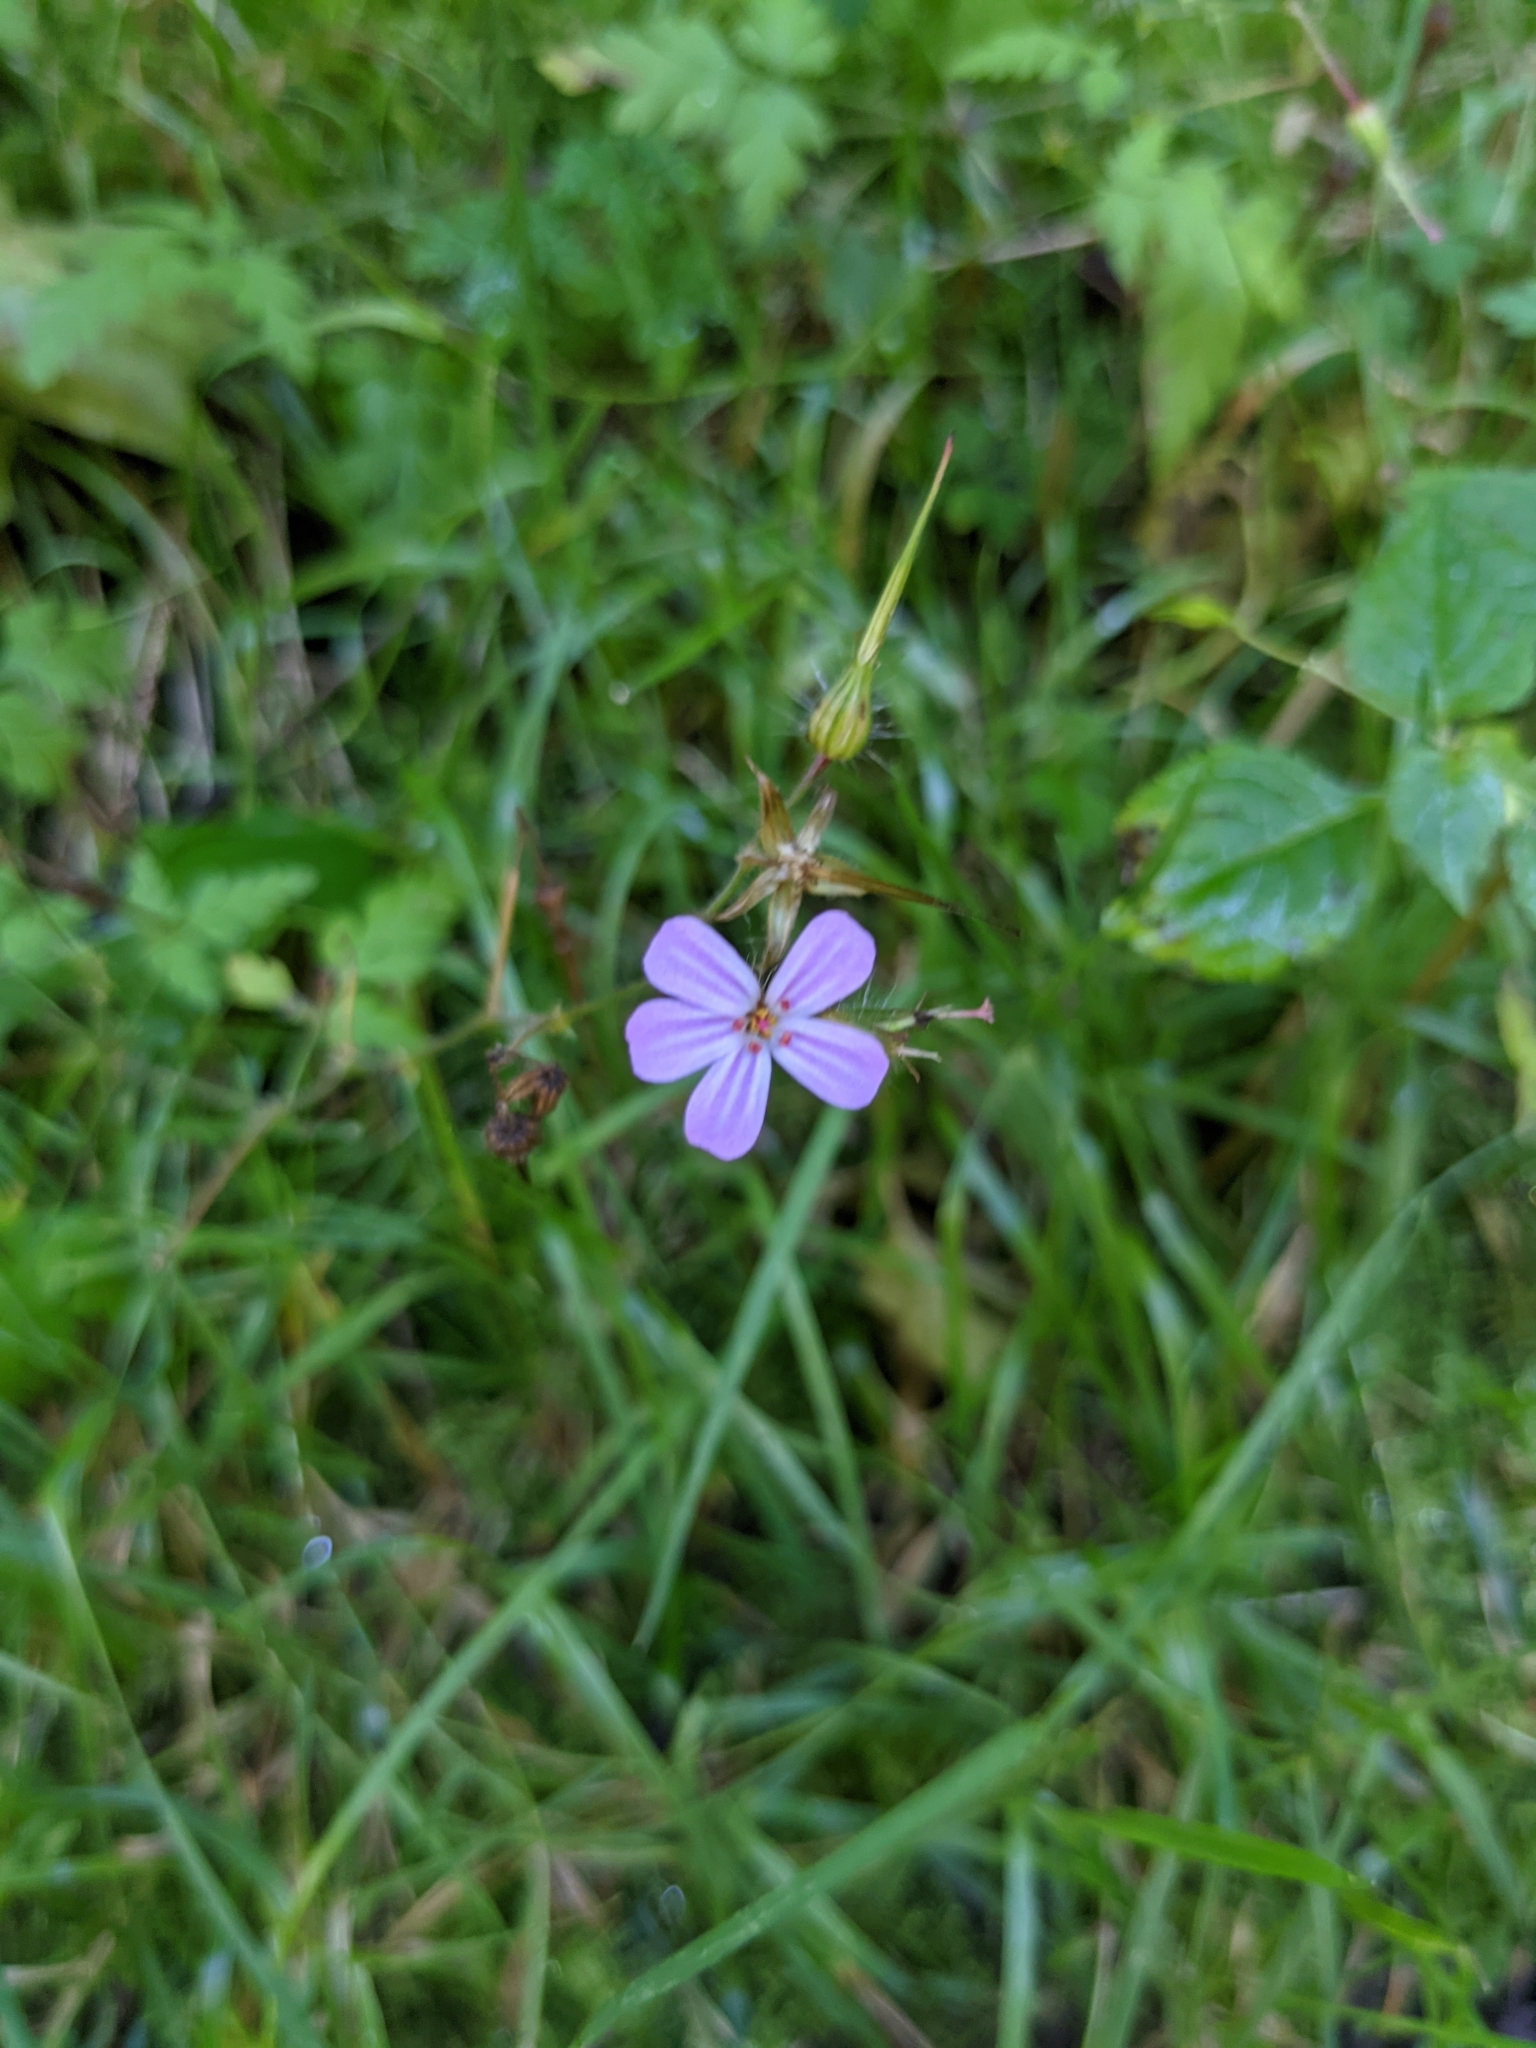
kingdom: Plantae
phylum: Tracheophyta
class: Magnoliopsida
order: Geraniales
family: Geraniaceae
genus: Geranium
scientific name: Geranium robertianum
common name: Herb-robert
